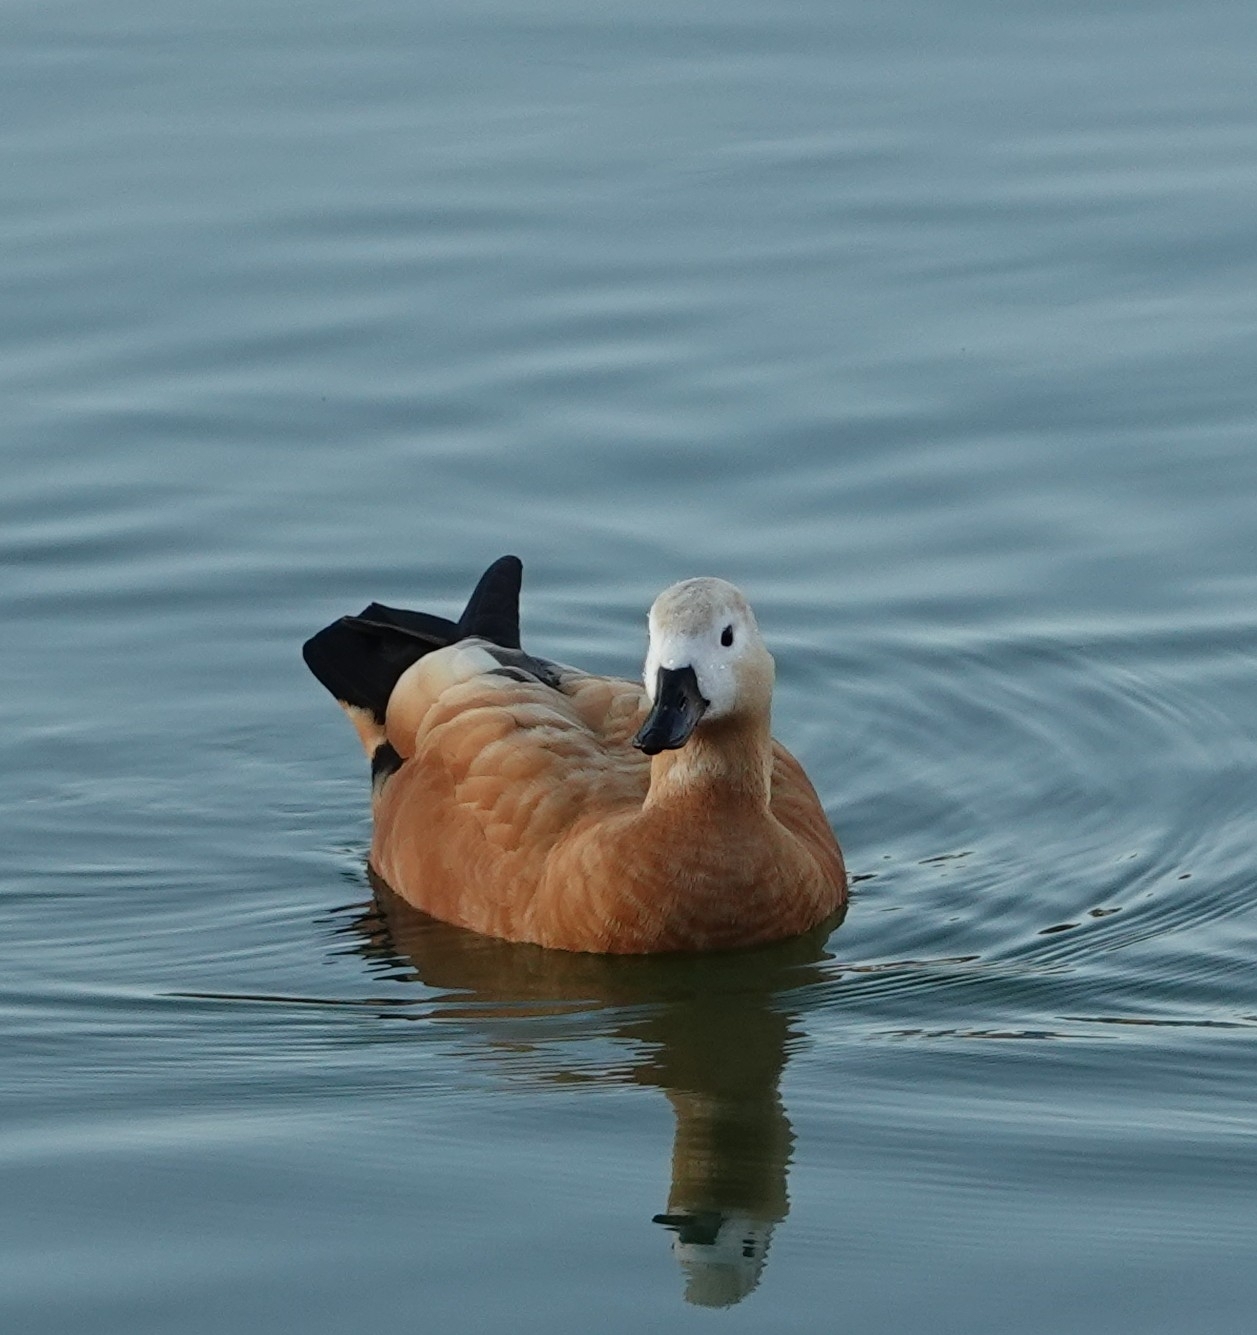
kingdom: Animalia
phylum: Chordata
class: Aves
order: Anseriformes
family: Anatidae
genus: Tadorna
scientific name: Tadorna ferruginea
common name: Ruddy shelduck
